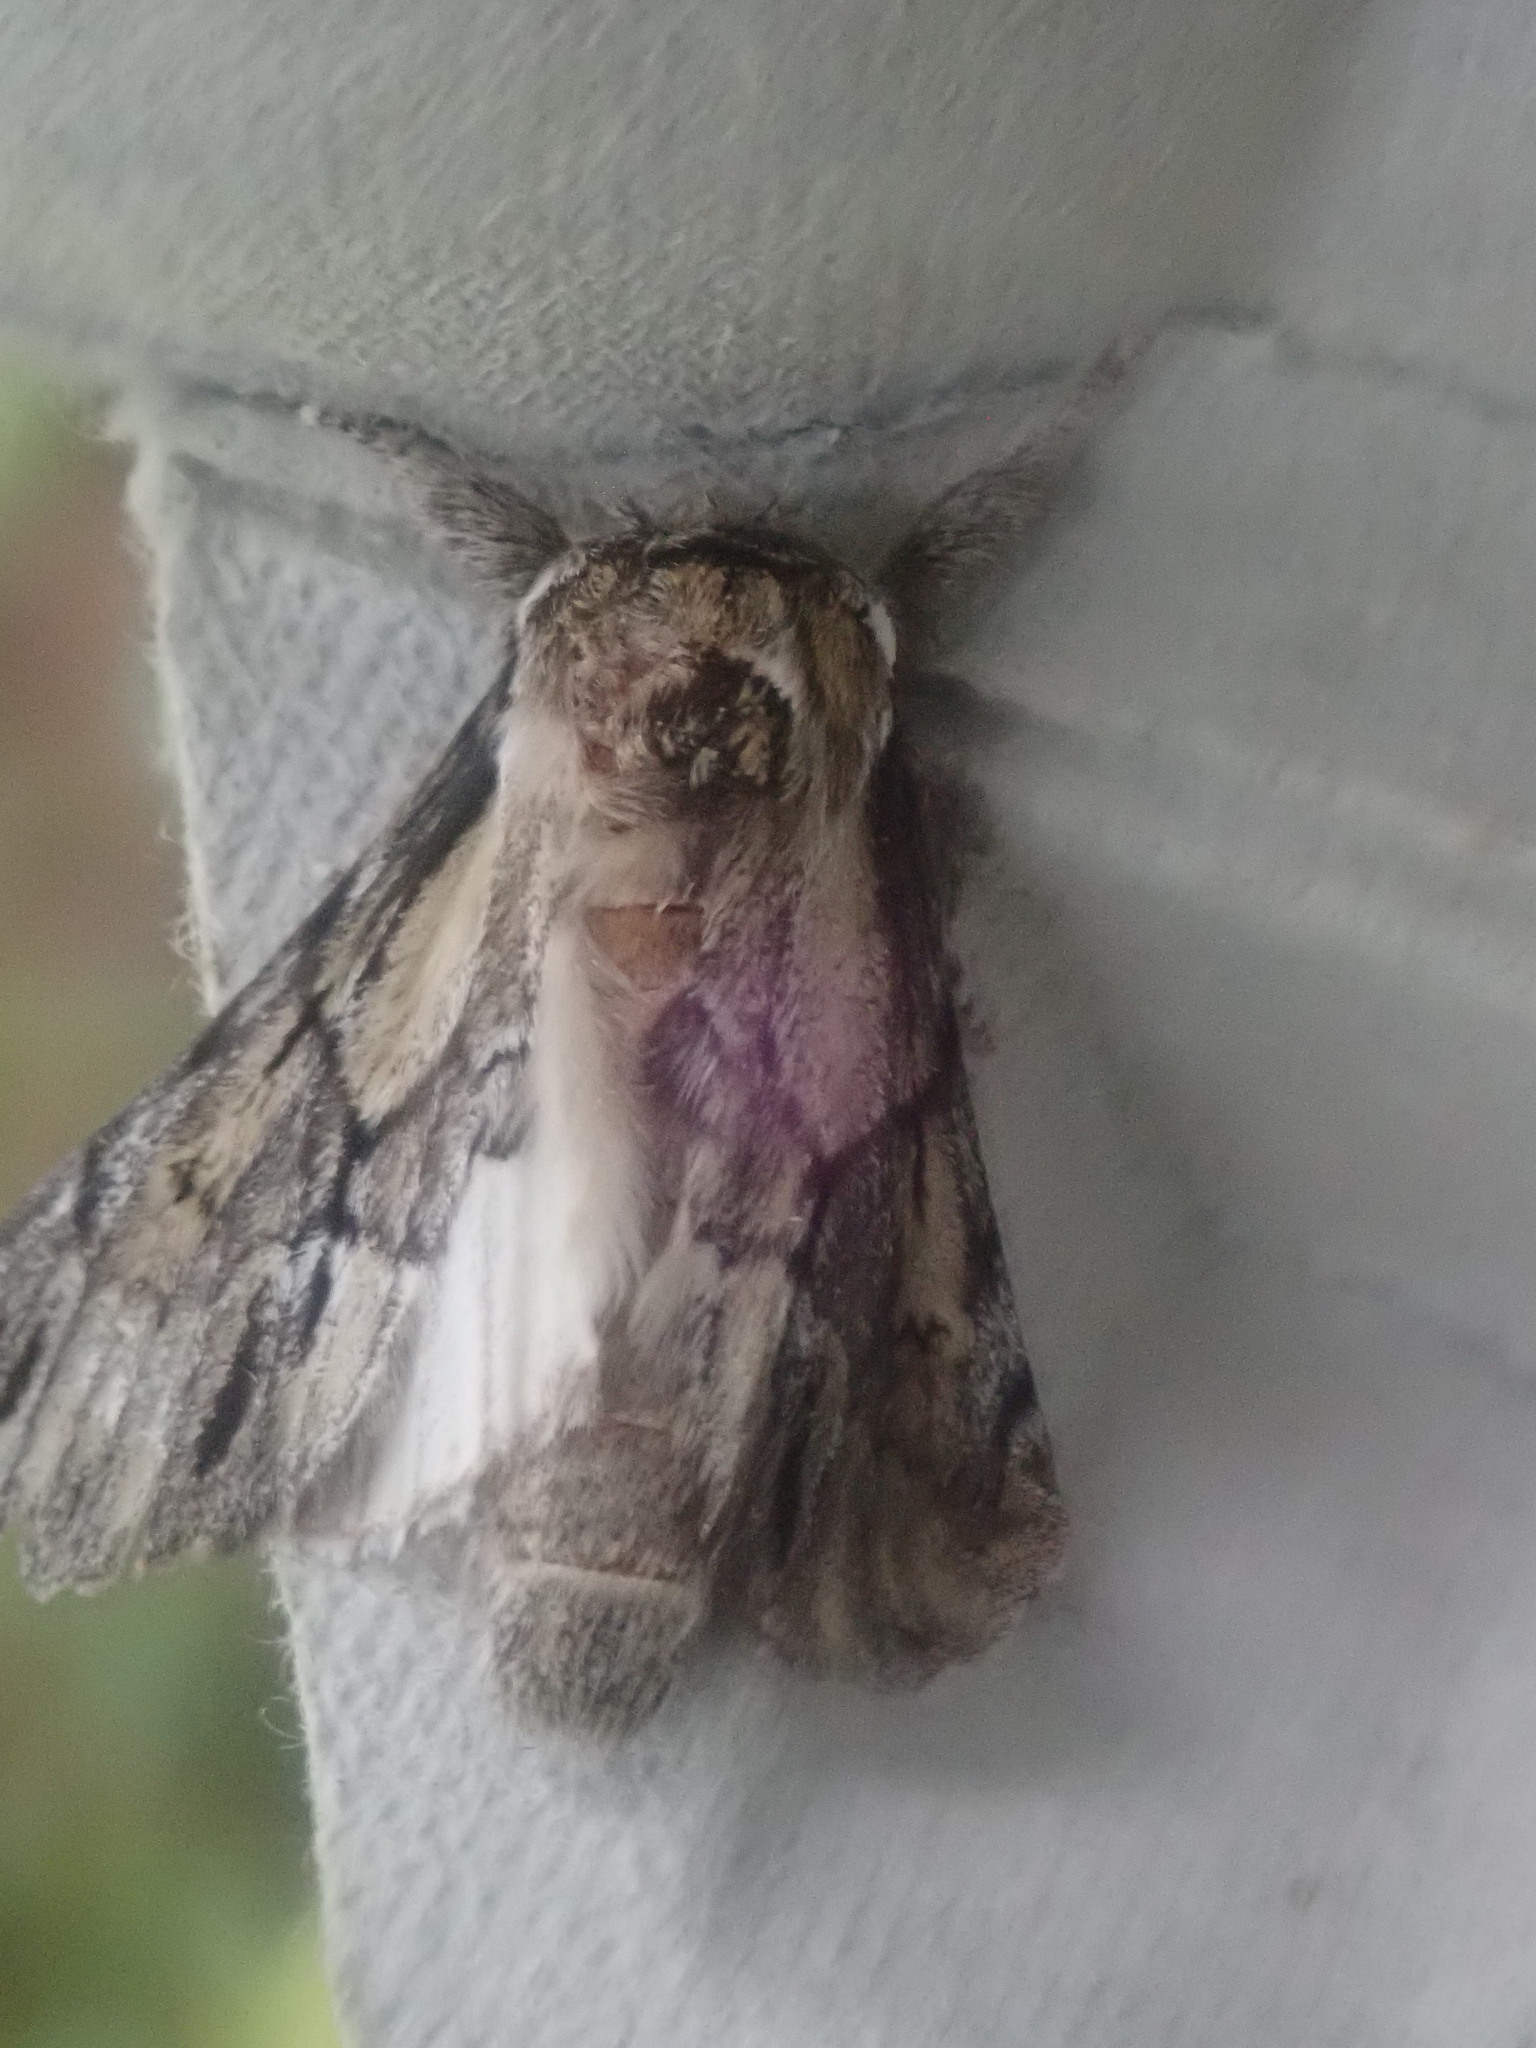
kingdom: Animalia
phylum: Arthropoda
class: Insecta
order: Lepidoptera
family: Notodontidae
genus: Paraeschra
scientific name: Paraeschra georgica
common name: Georgian prominent
